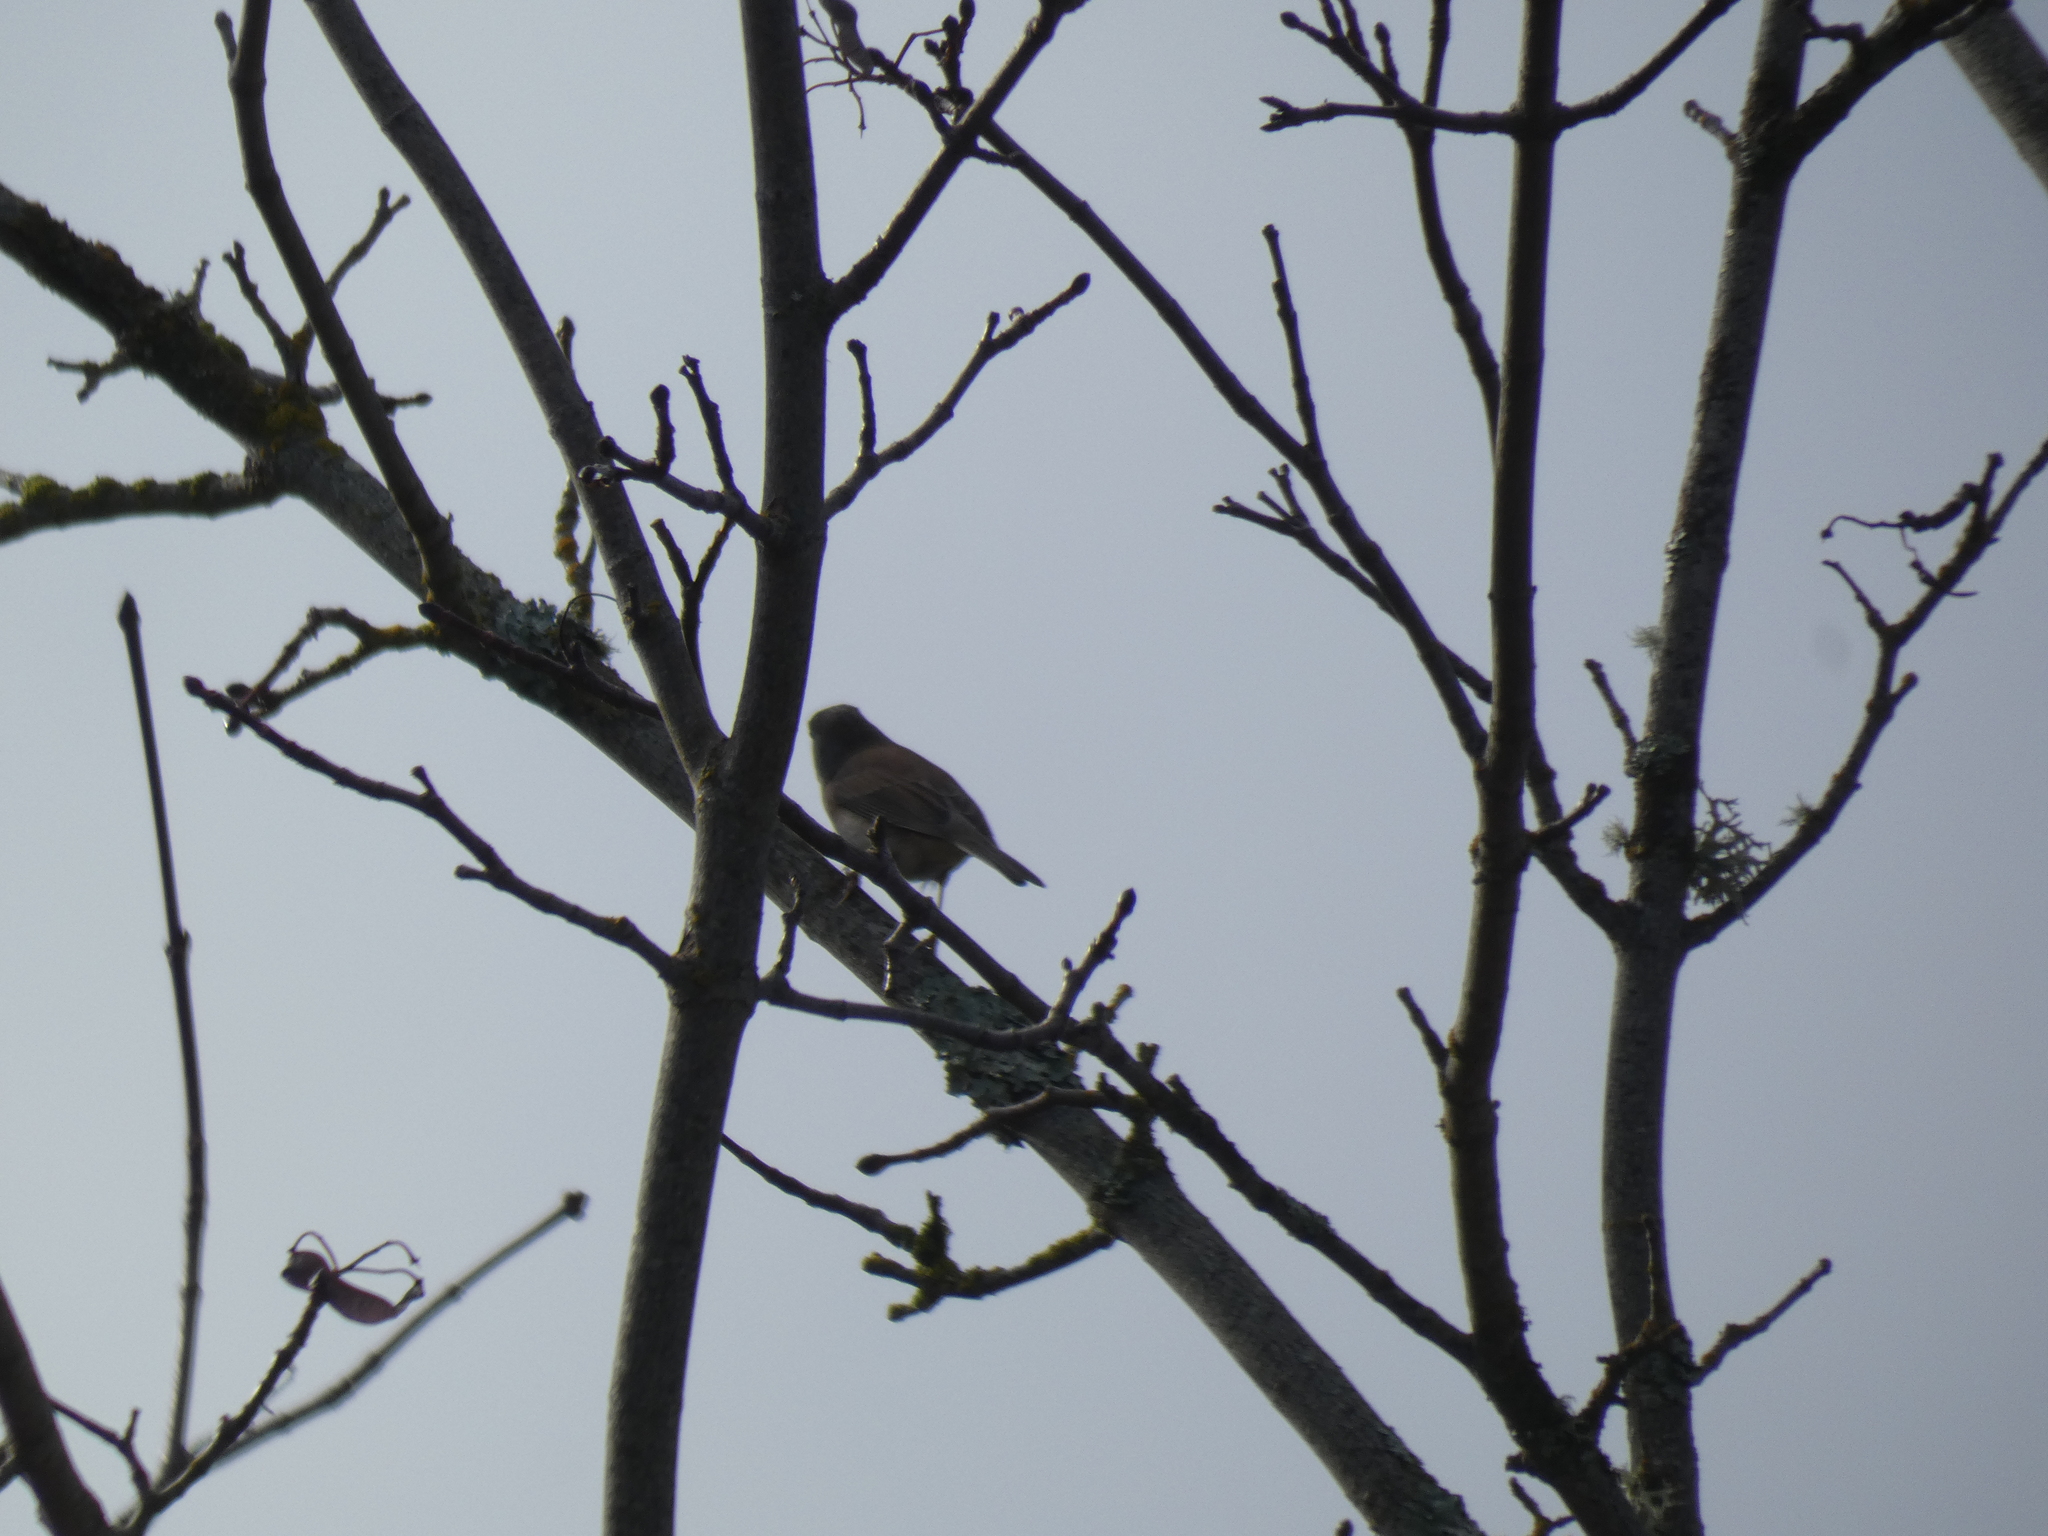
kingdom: Animalia
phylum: Chordata
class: Aves
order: Passeriformes
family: Passerellidae
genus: Junco
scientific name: Junco hyemalis
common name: Dark-eyed junco
